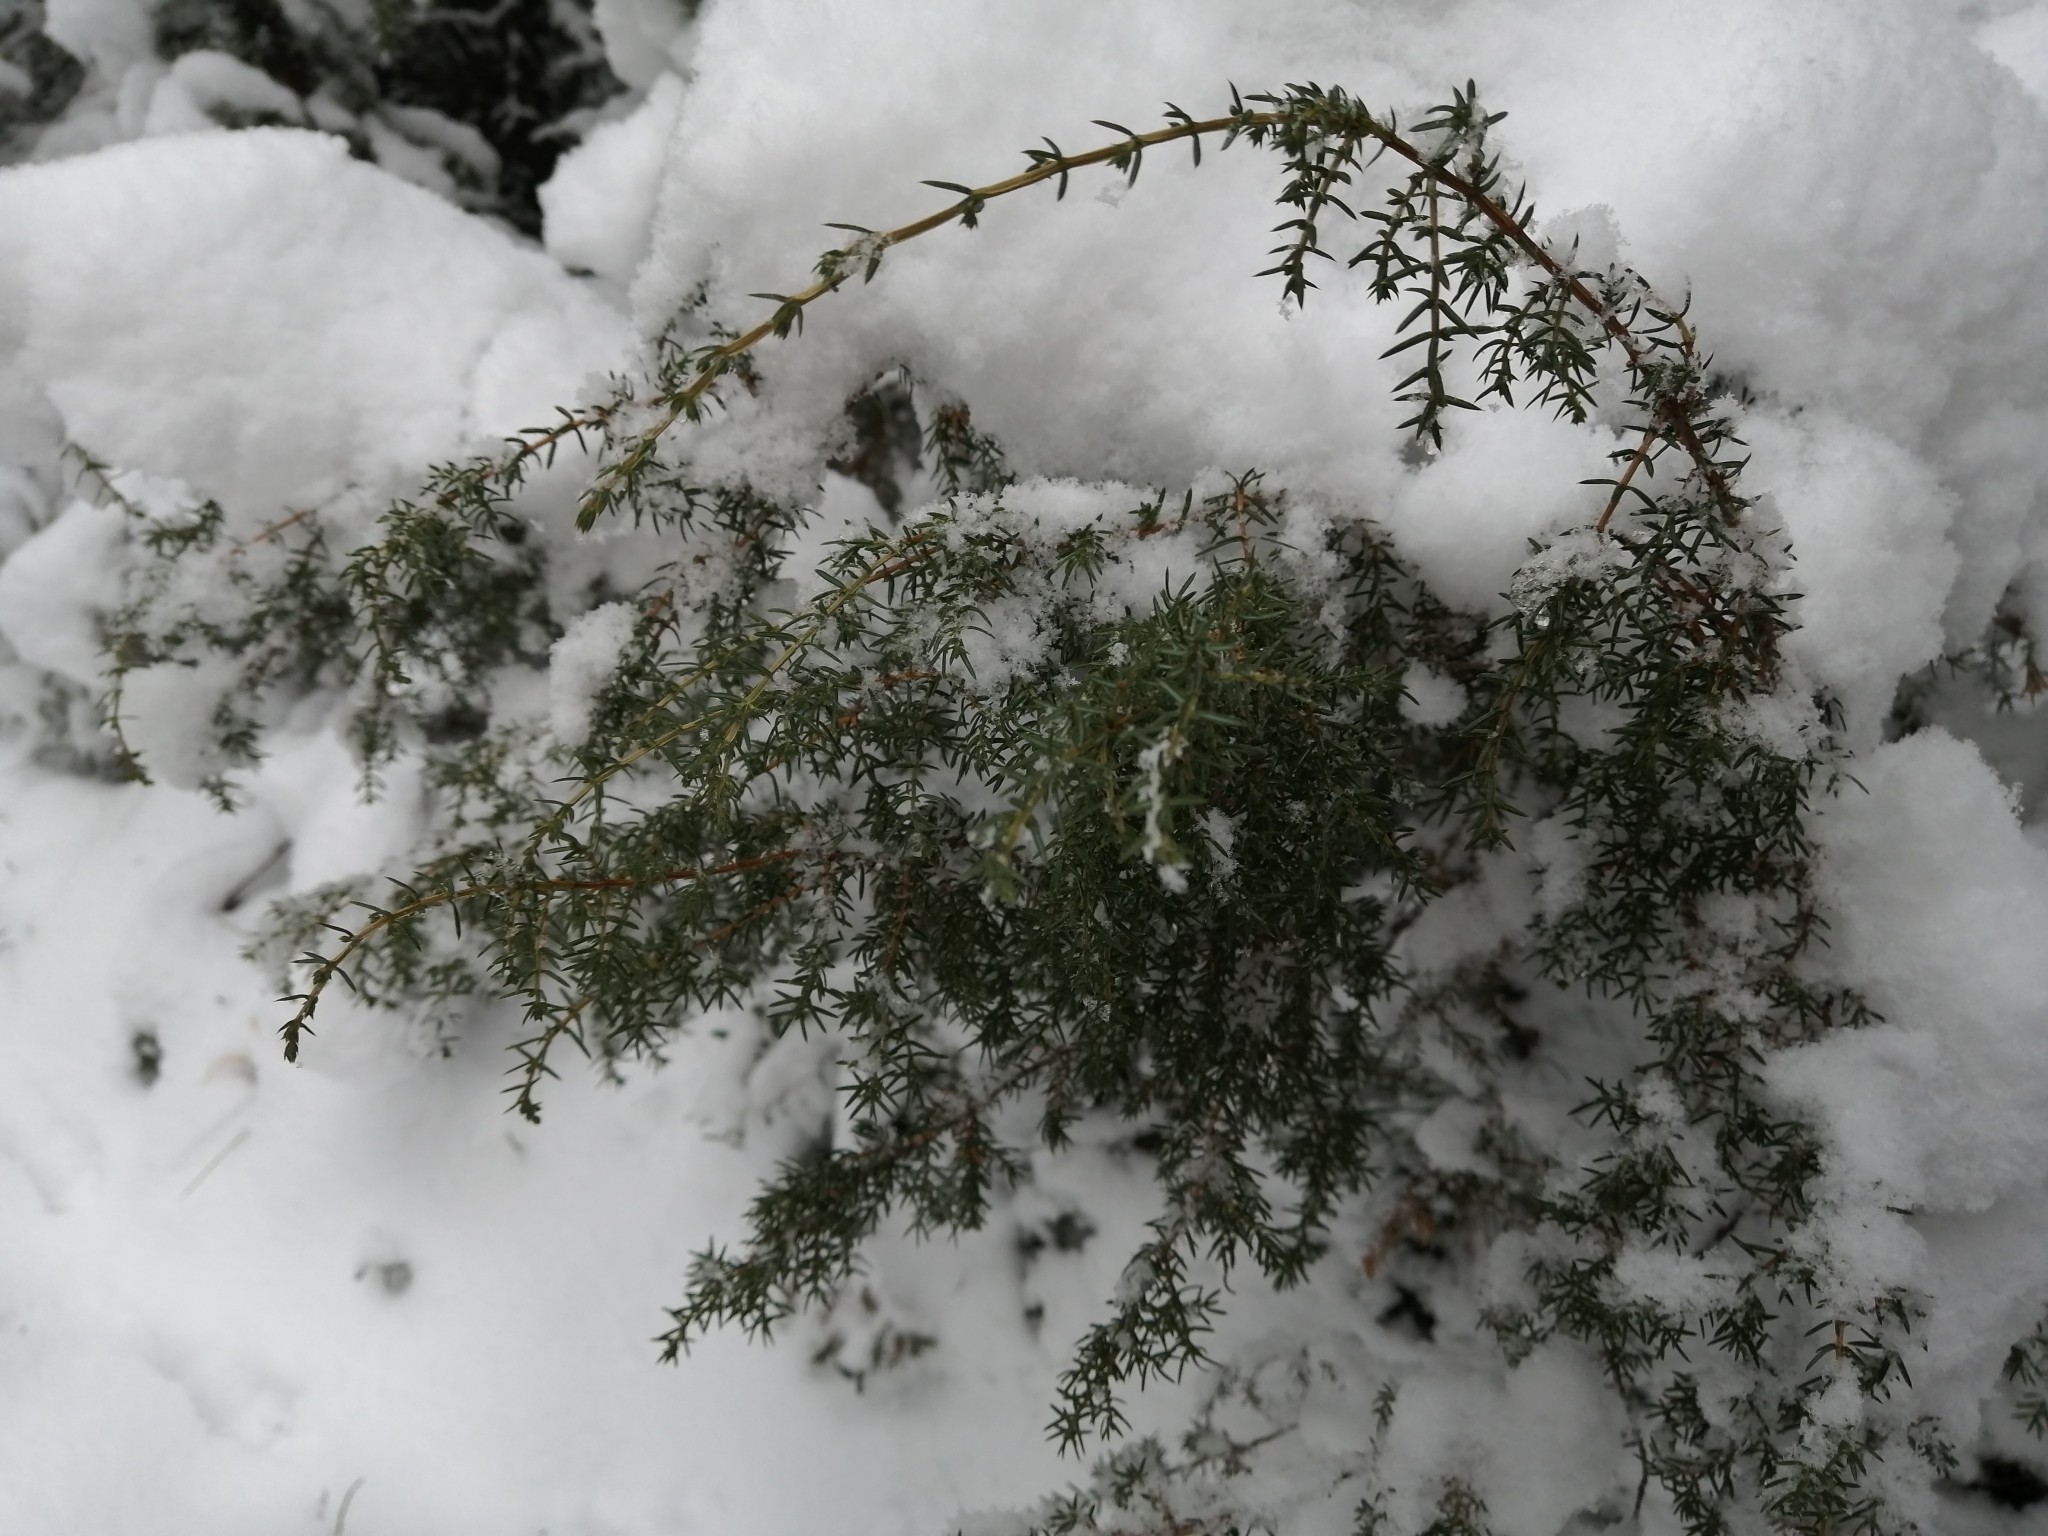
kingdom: Plantae
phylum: Tracheophyta
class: Pinopsida
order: Pinales
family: Cupressaceae
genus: Juniperus
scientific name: Juniperus communis
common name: Common juniper
